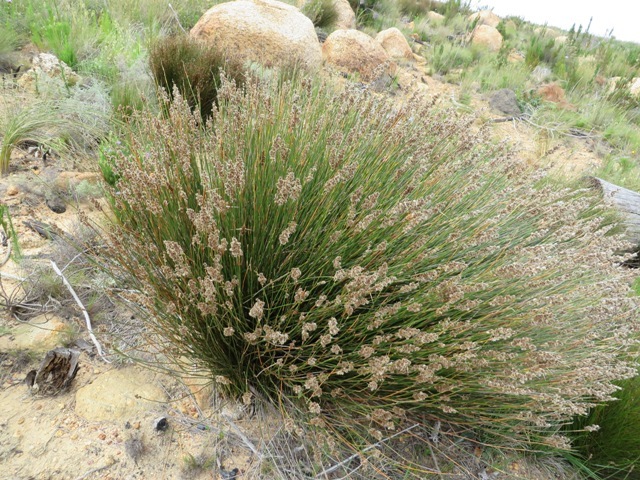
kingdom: Plantae
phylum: Tracheophyta
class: Liliopsida
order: Poales
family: Restionaceae
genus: Hypodiscus
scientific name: Hypodiscus argenteus
